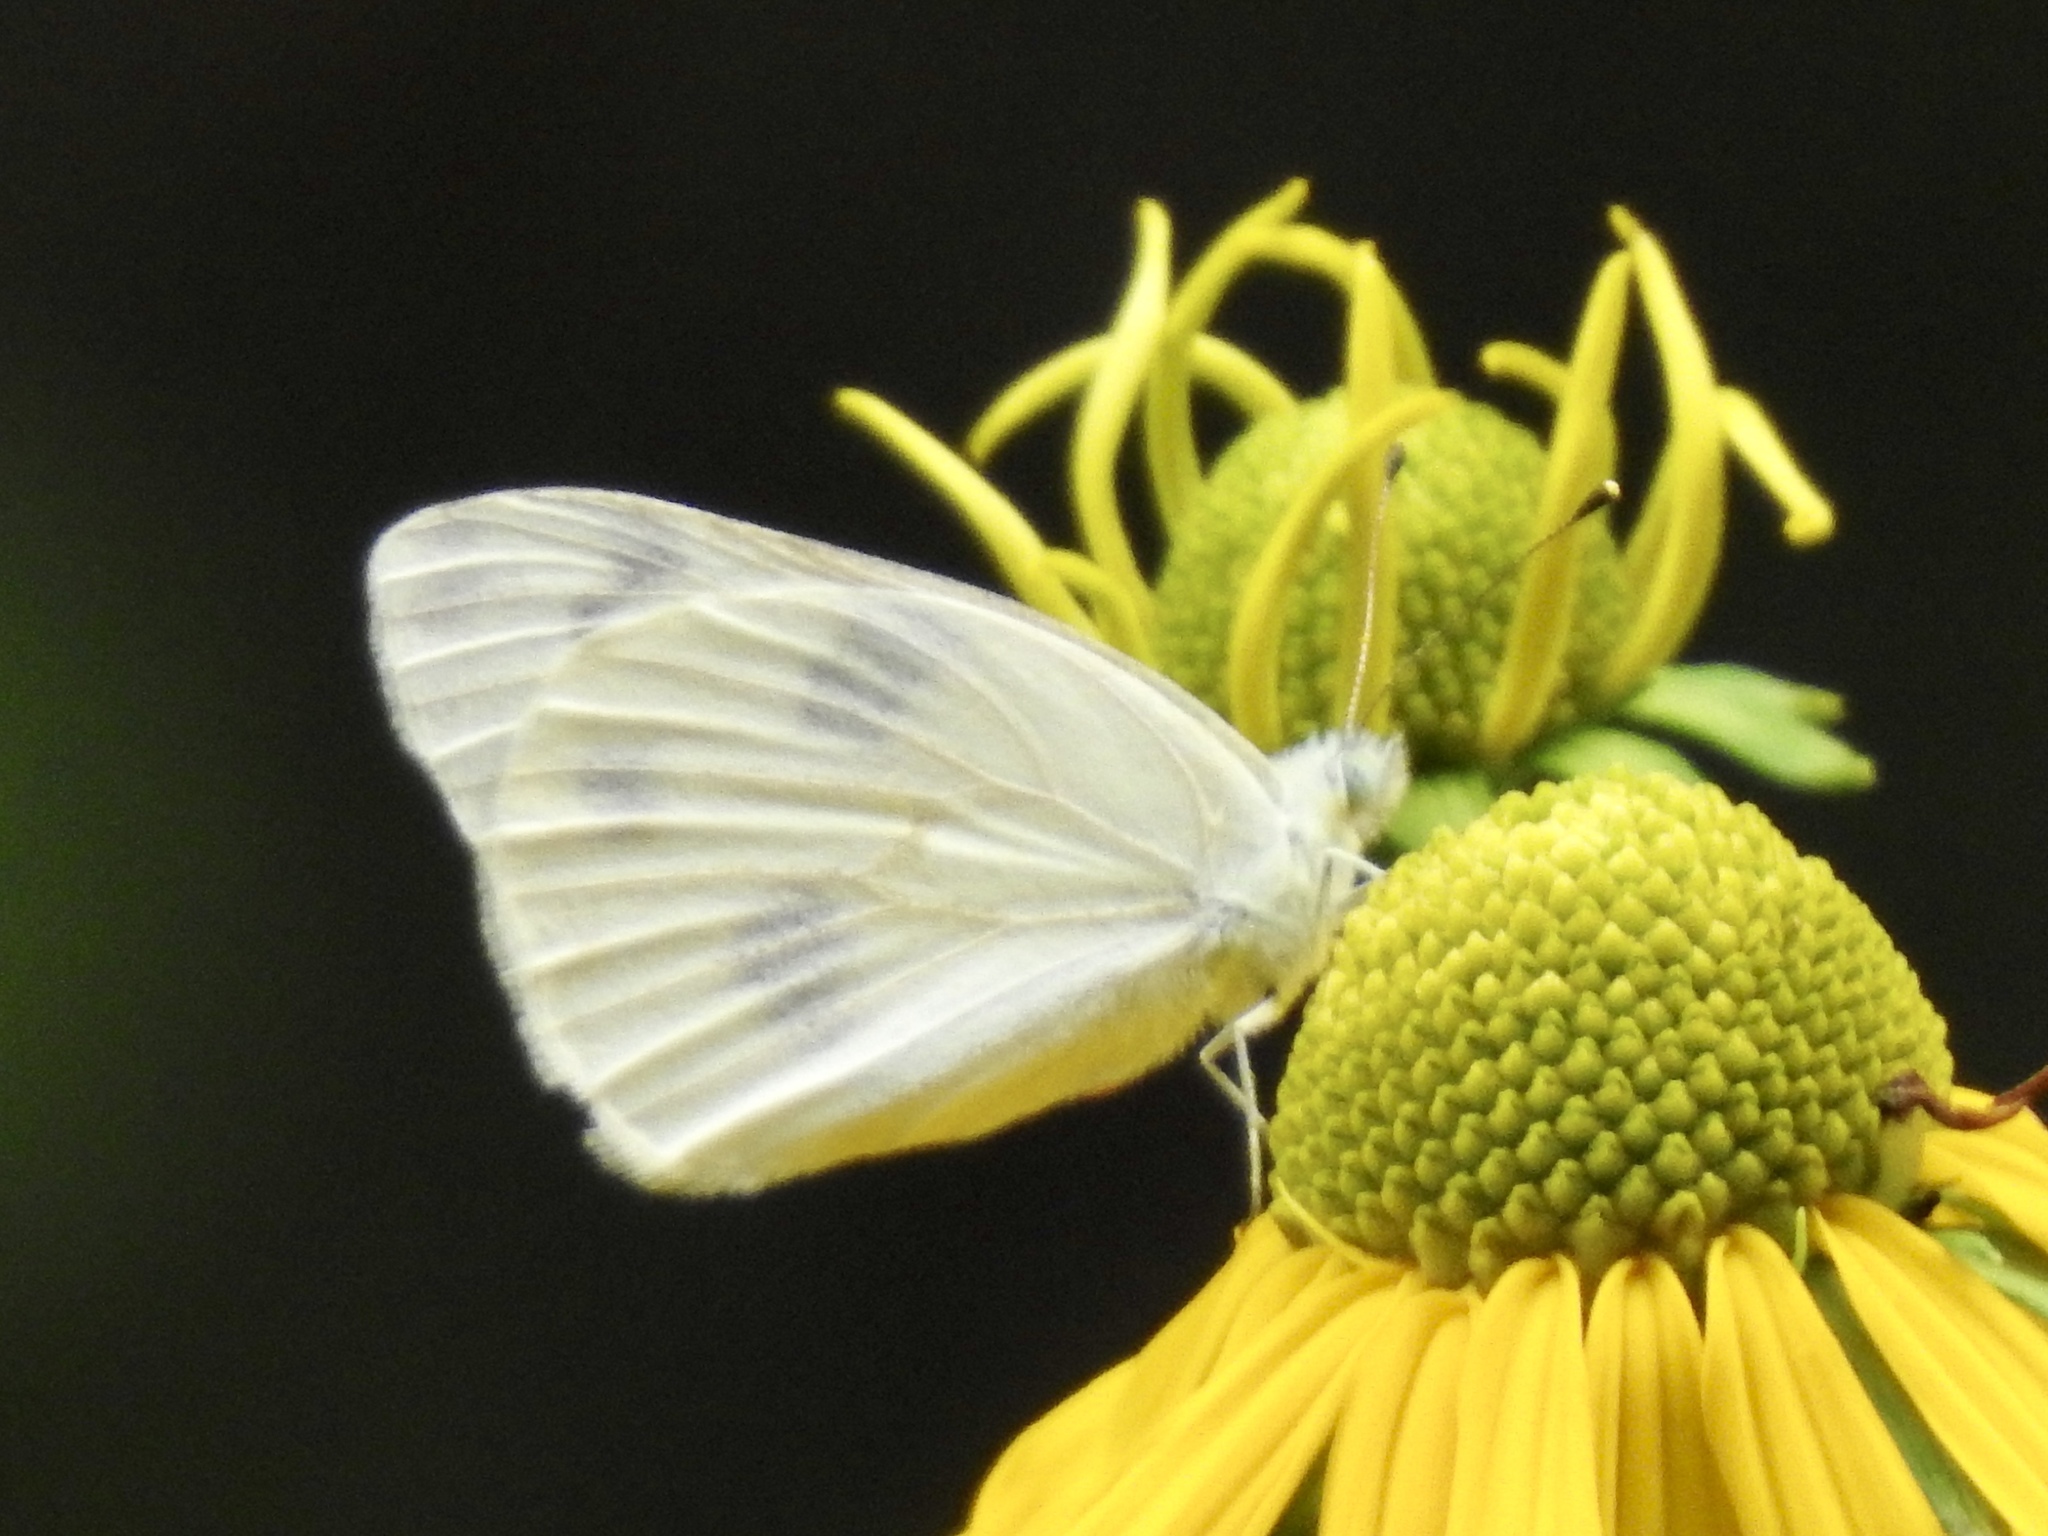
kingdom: Animalia
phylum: Arthropoda
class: Insecta
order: Lepidoptera
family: Pieridae
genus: Pontia
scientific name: Pontia protodice
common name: Checkered white
